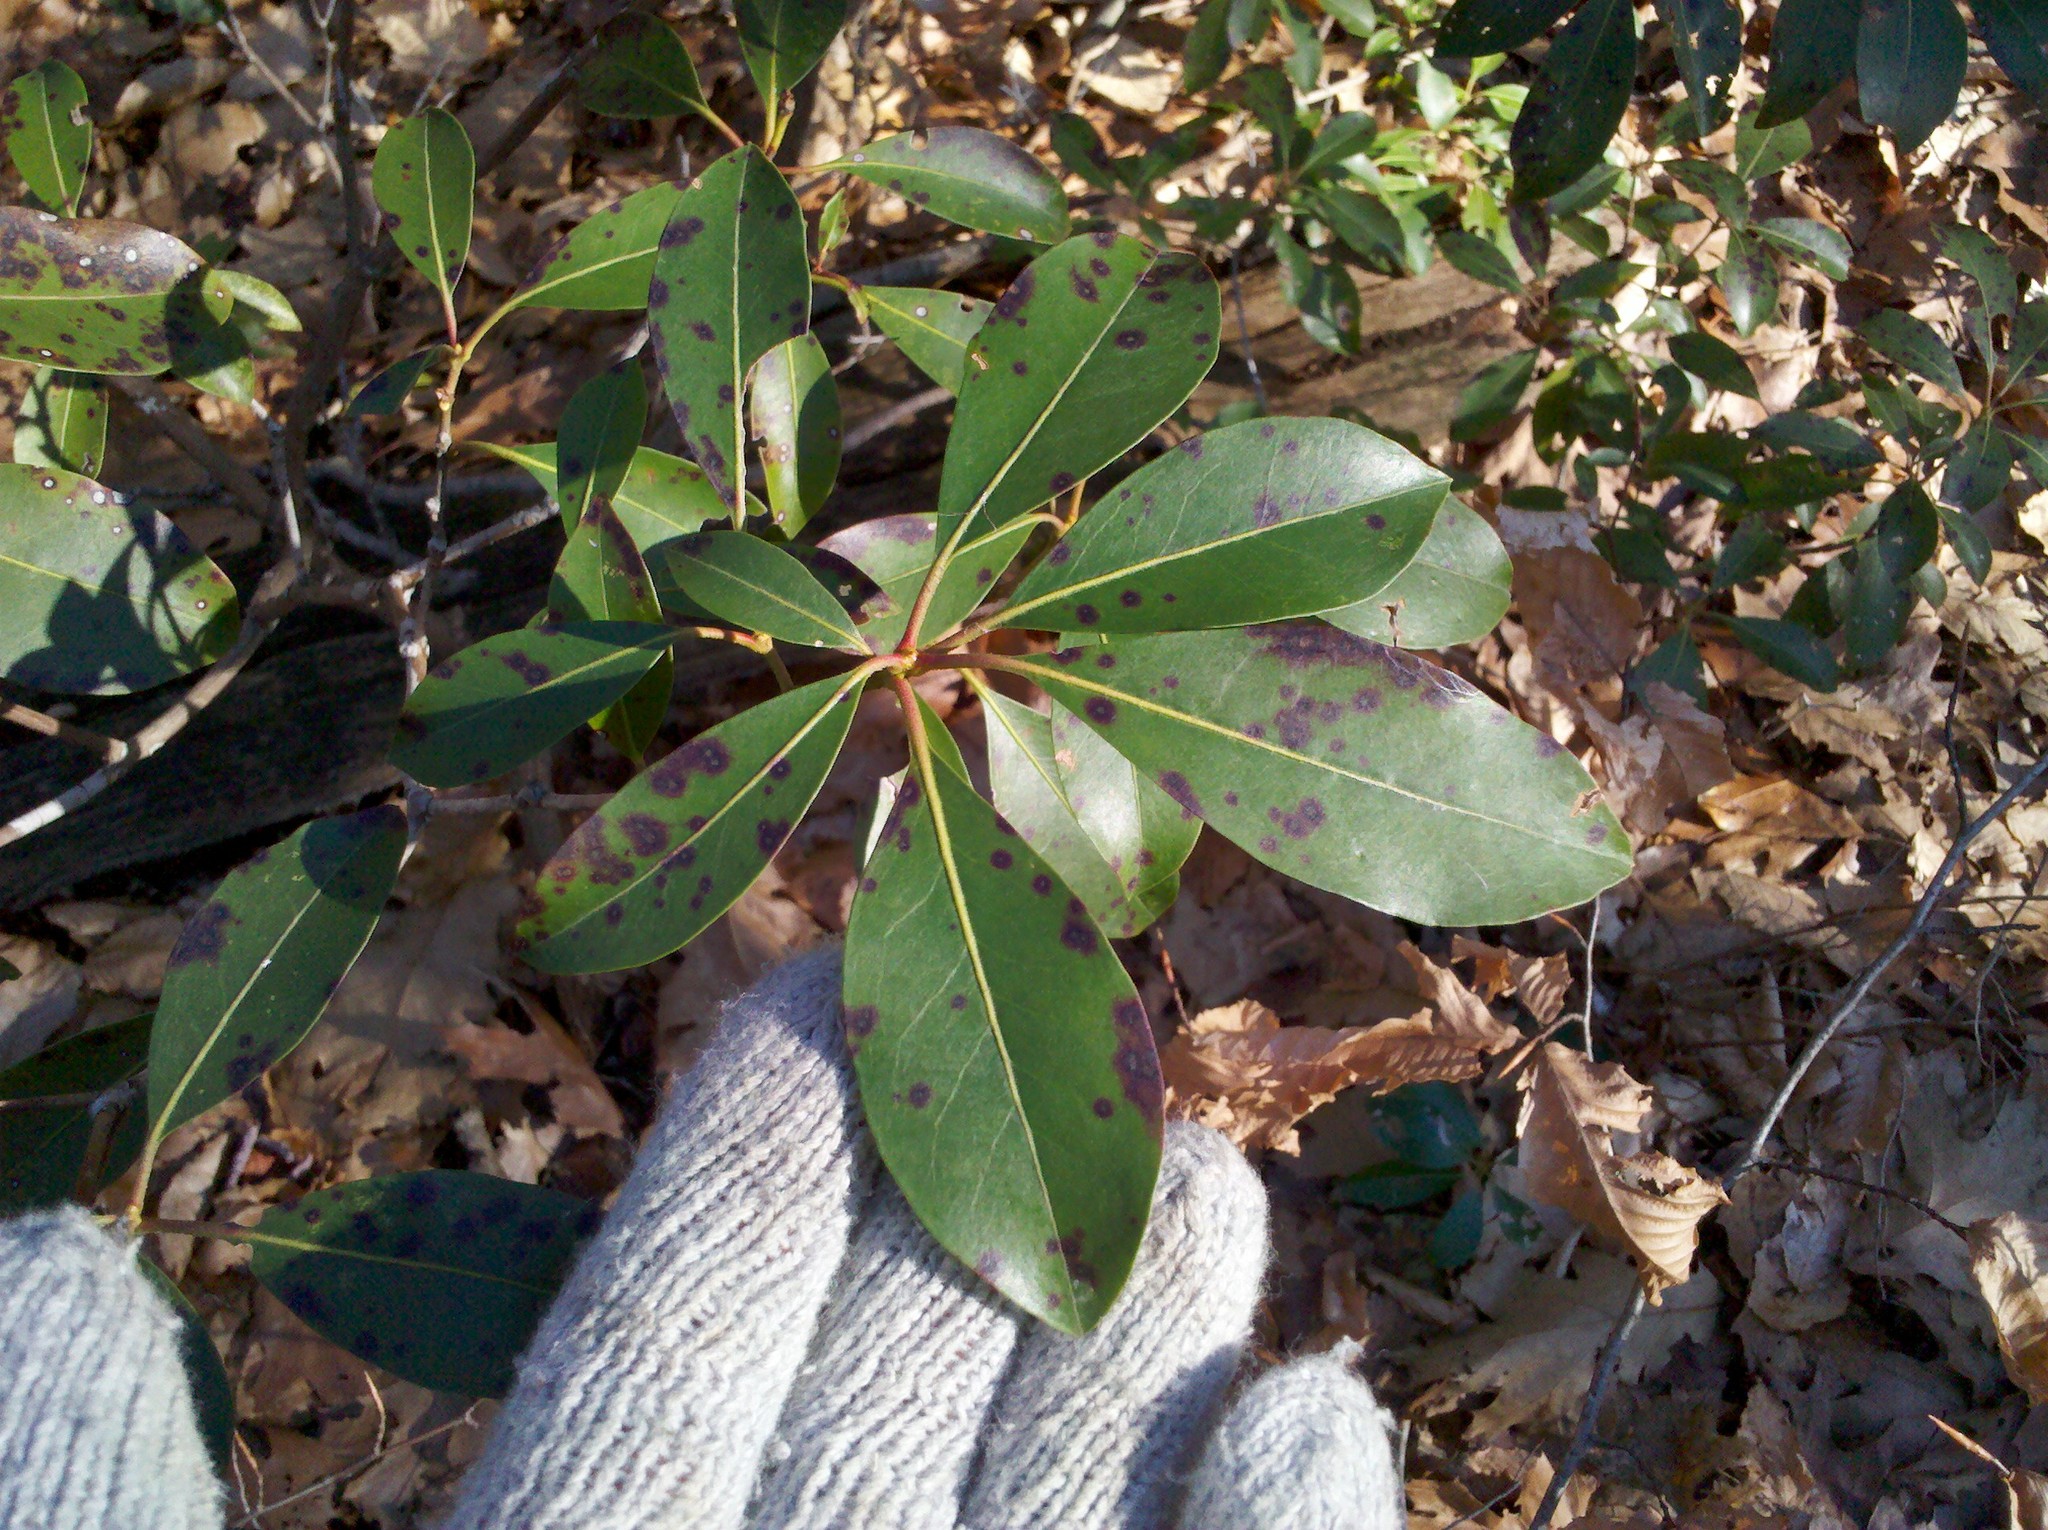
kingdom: Plantae
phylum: Tracheophyta
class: Magnoliopsida
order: Ericales
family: Ericaceae
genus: Kalmia
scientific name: Kalmia latifolia
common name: Mountain-laurel
